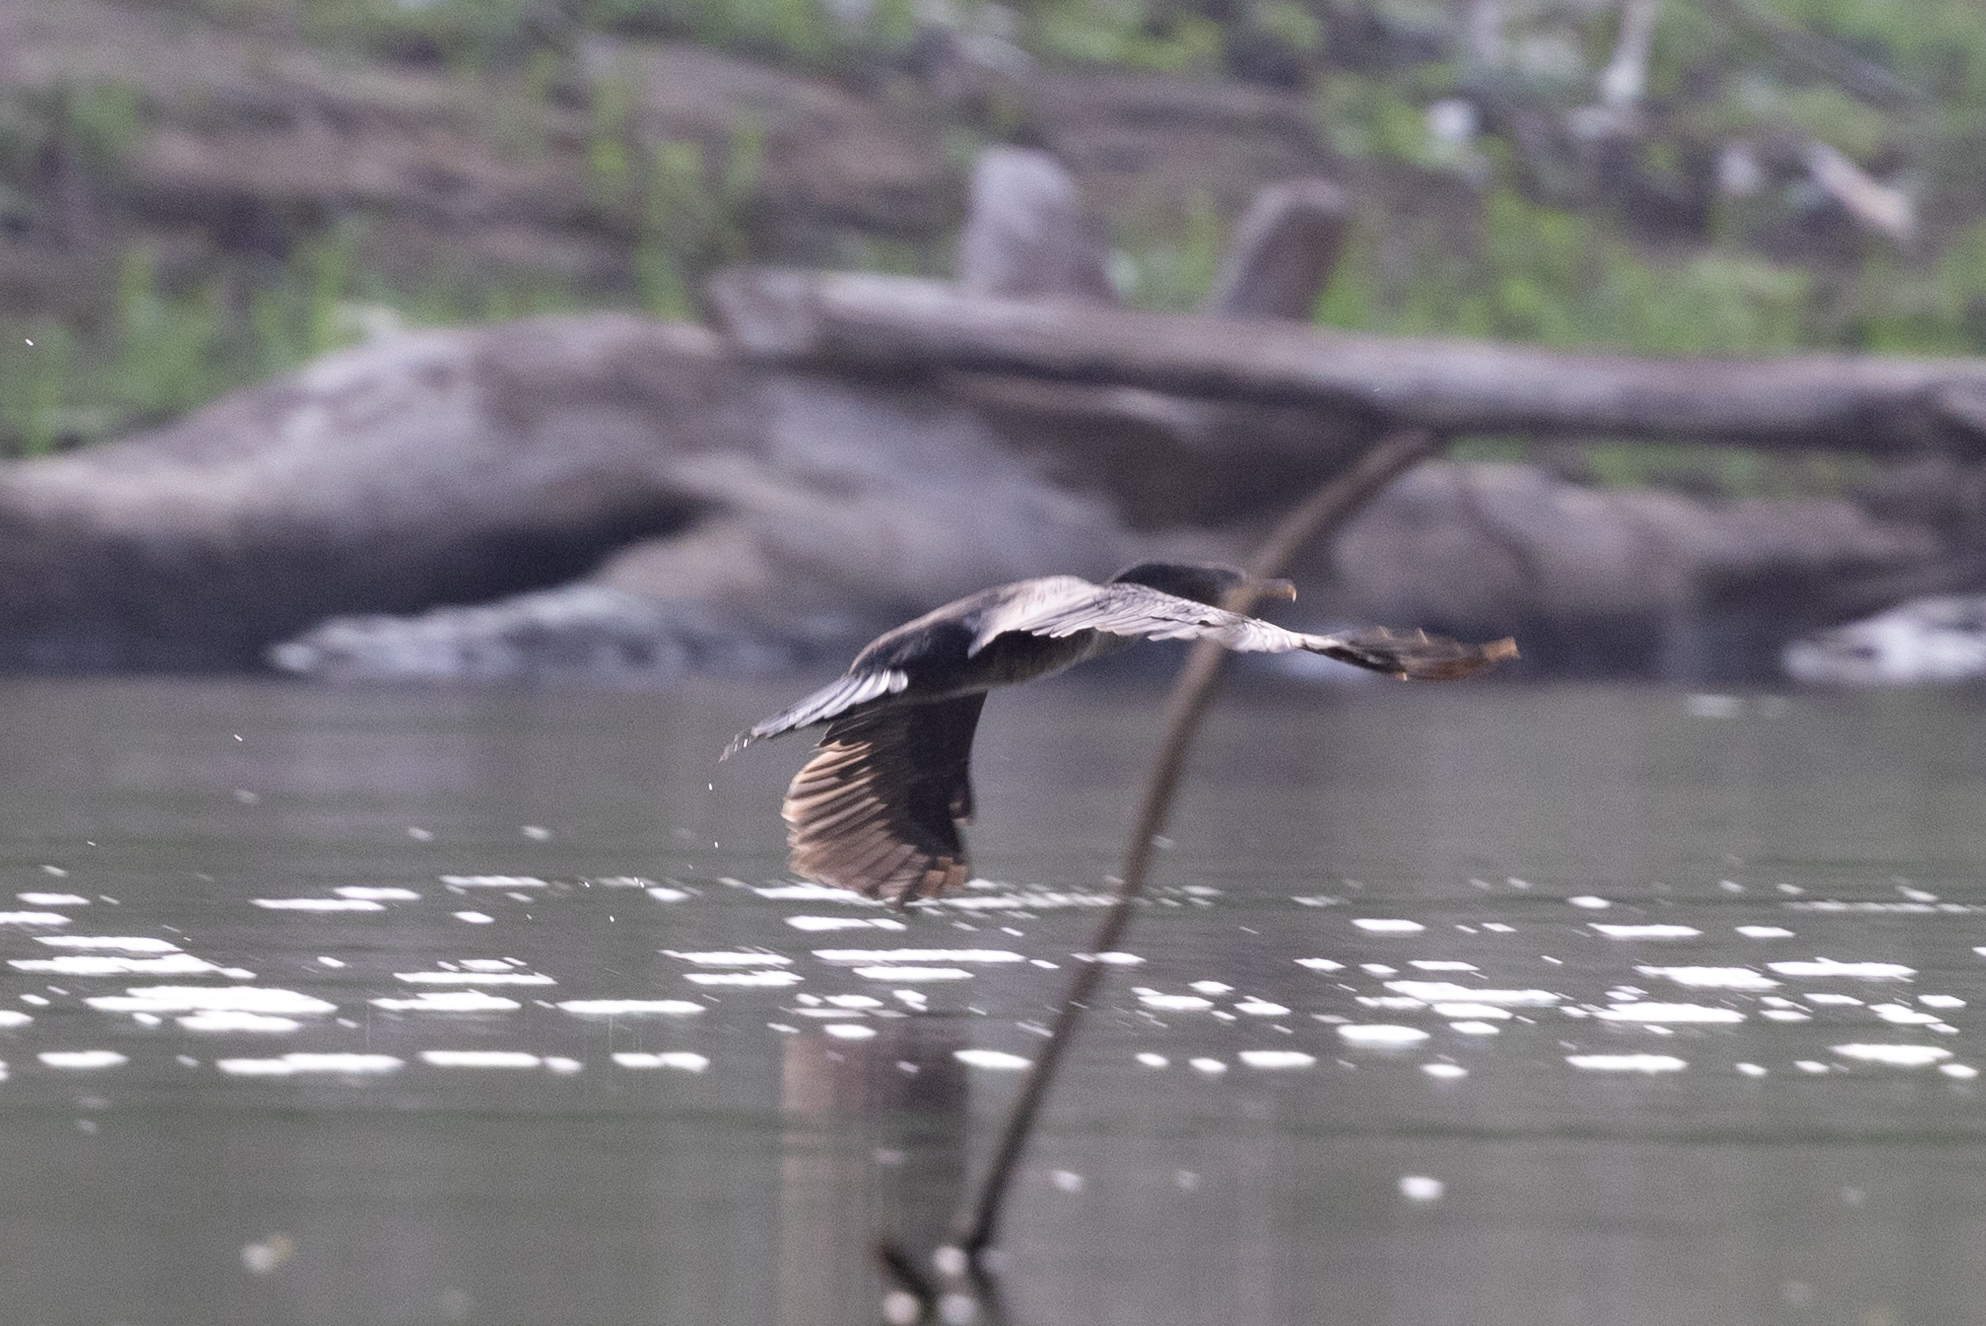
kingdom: Animalia
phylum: Chordata
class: Aves
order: Suliformes
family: Phalacrocoracidae
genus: Phalacrocorax
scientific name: Phalacrocorax brasilianus
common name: Neotropic cormorant
